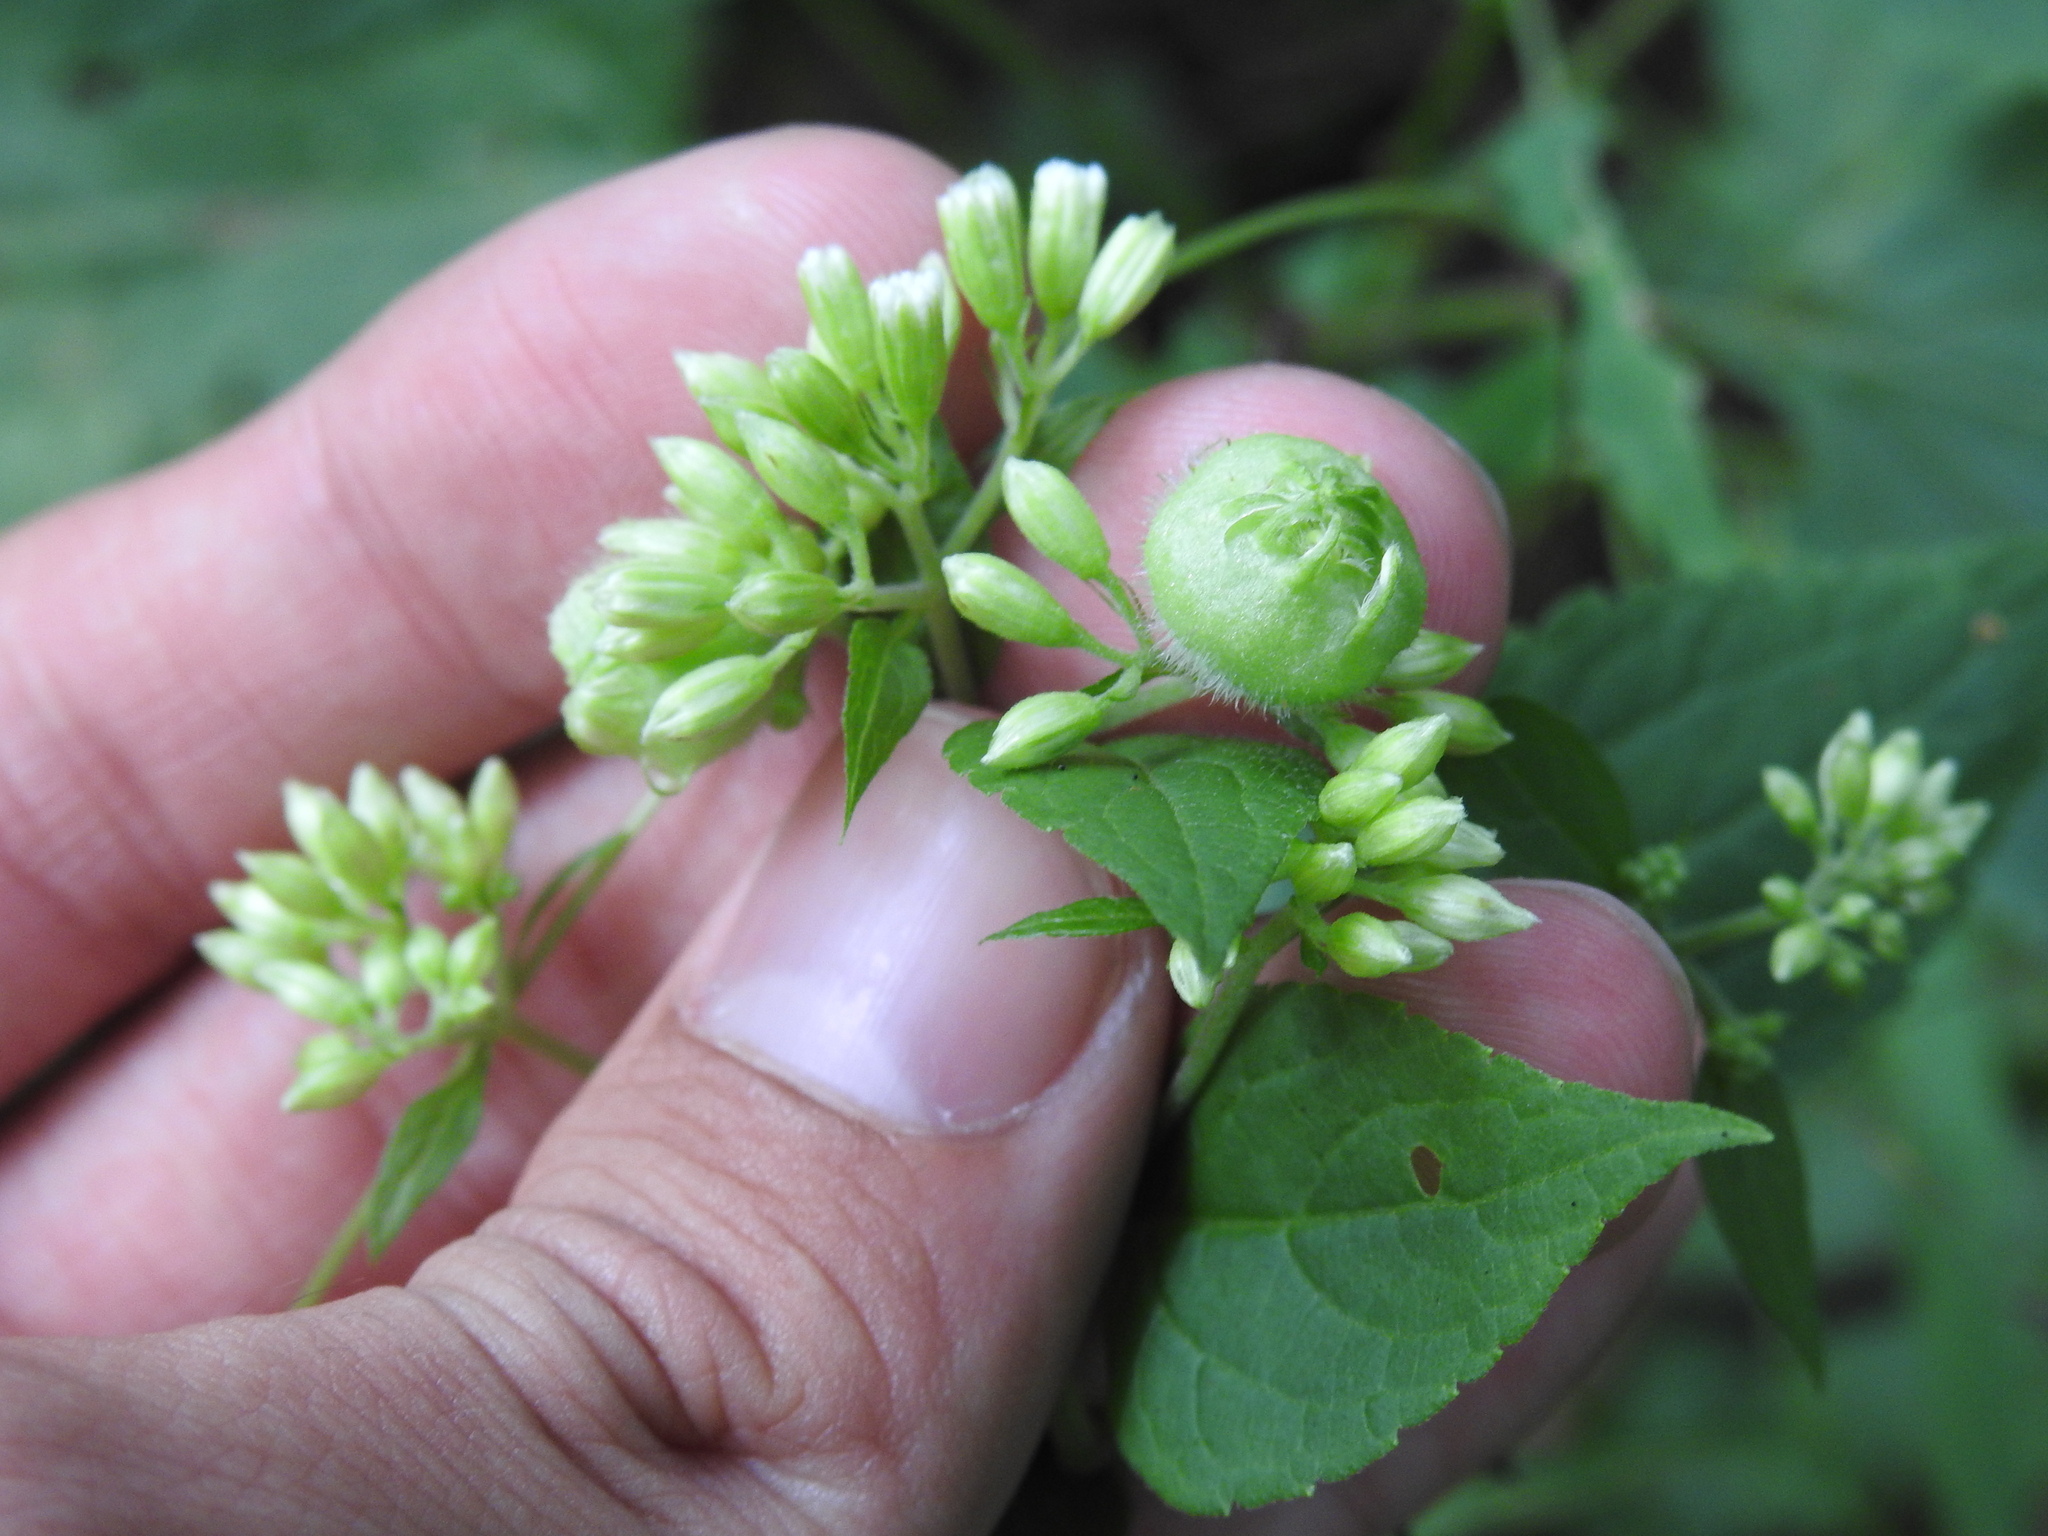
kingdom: Animalia
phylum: Arthropoda
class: Insecta
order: Diptera
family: Cecidomyiidae
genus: Schizomyia
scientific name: Schizomyia eupatoriflorae
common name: Boneset flower gall midge
